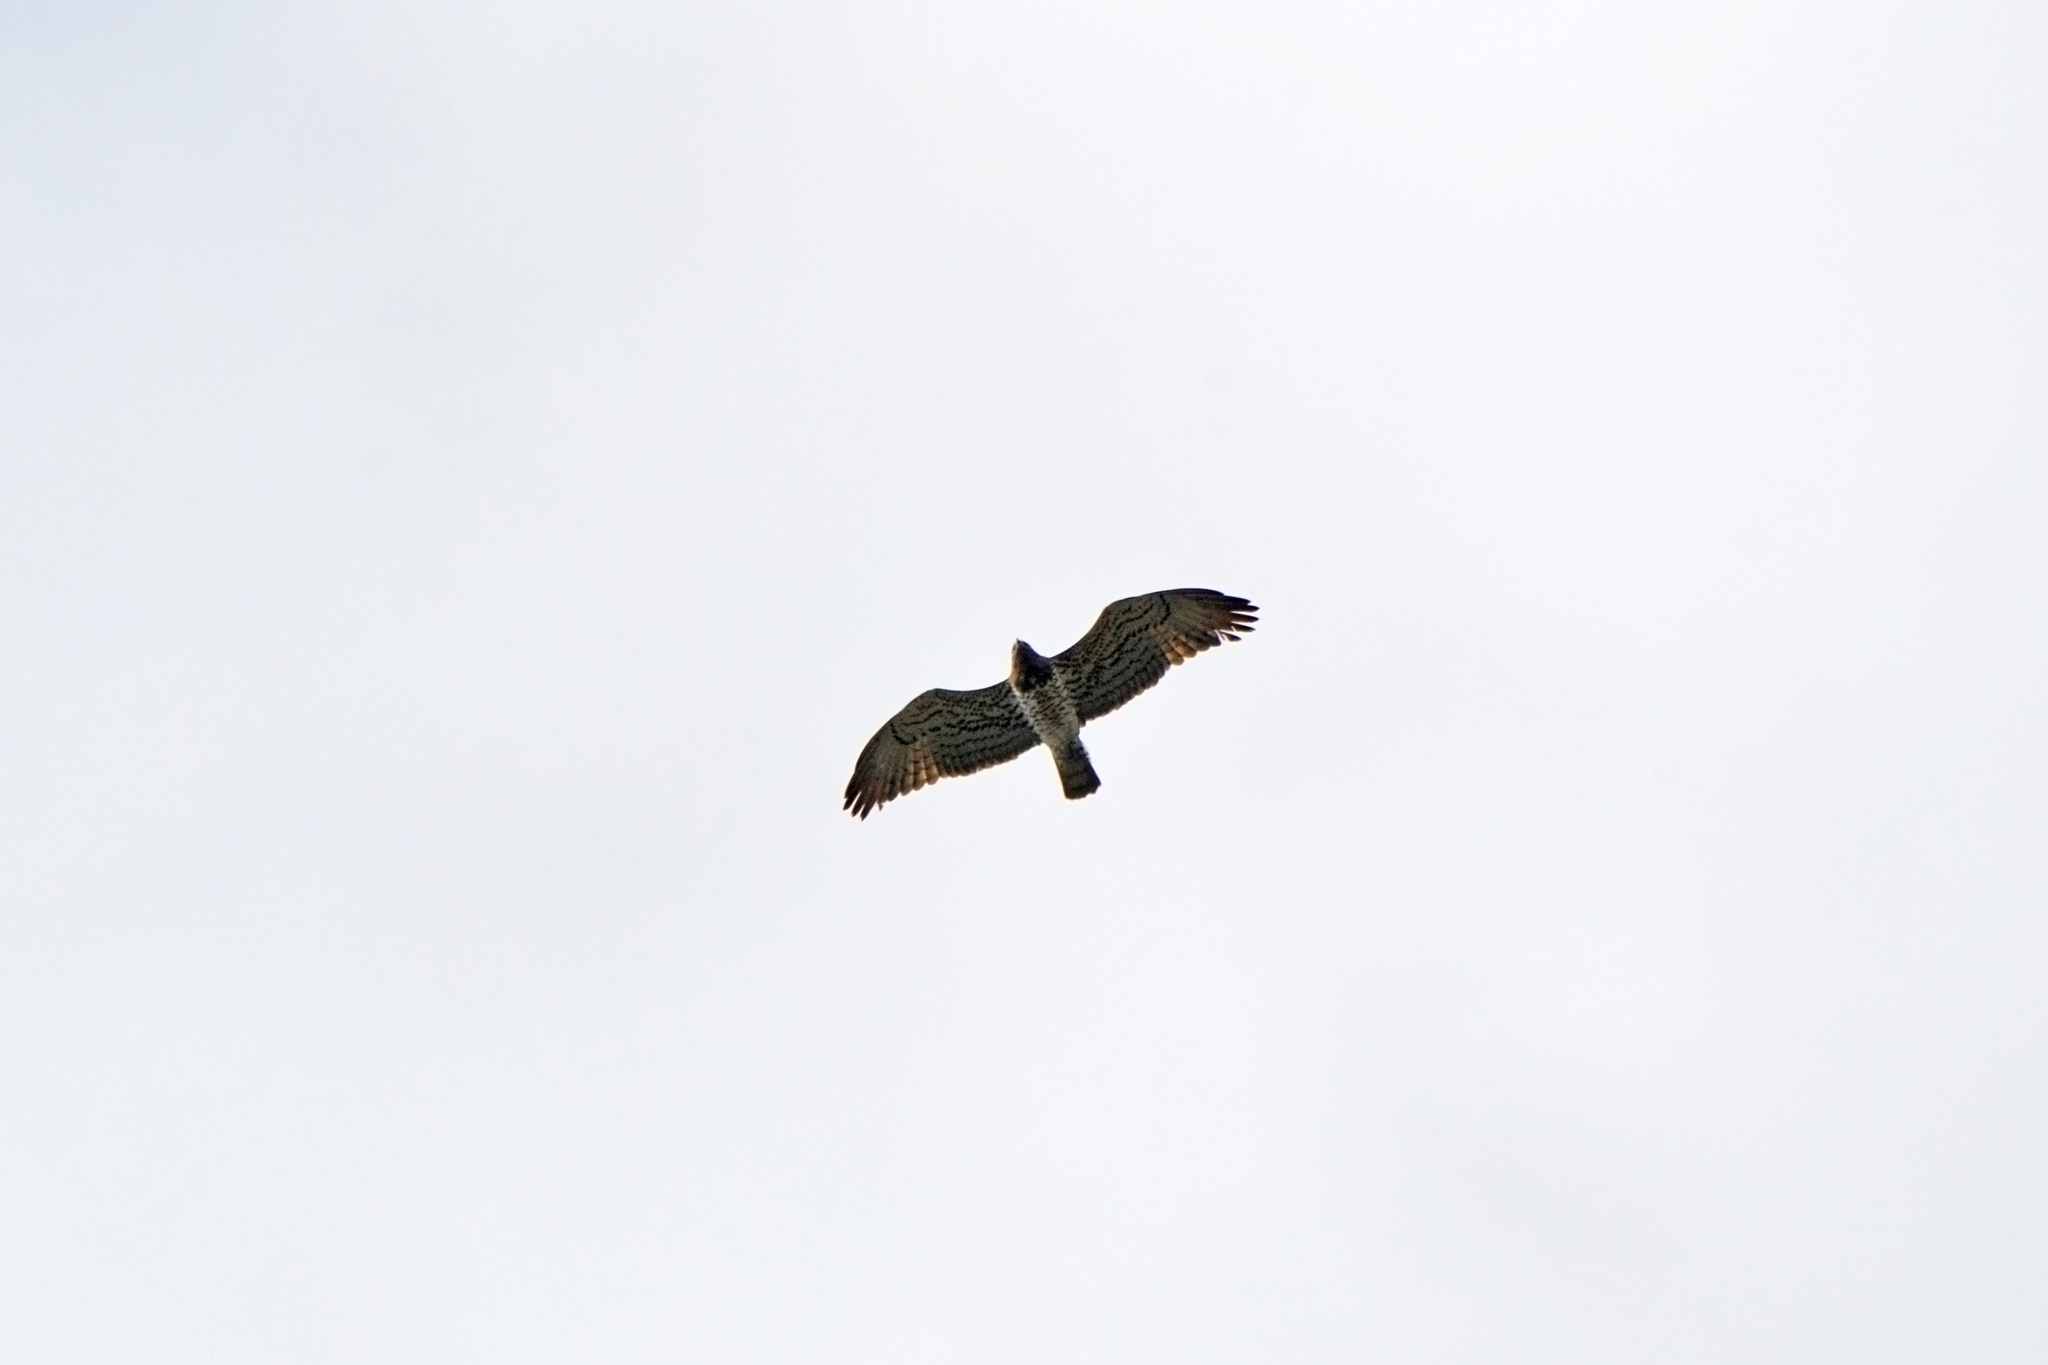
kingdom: Animalia
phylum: Chordata
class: Aves
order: Accipitriformes
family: Accipitridae
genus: Circaetus
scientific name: Circaetus gallicus
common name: Short-toed snake eagle
